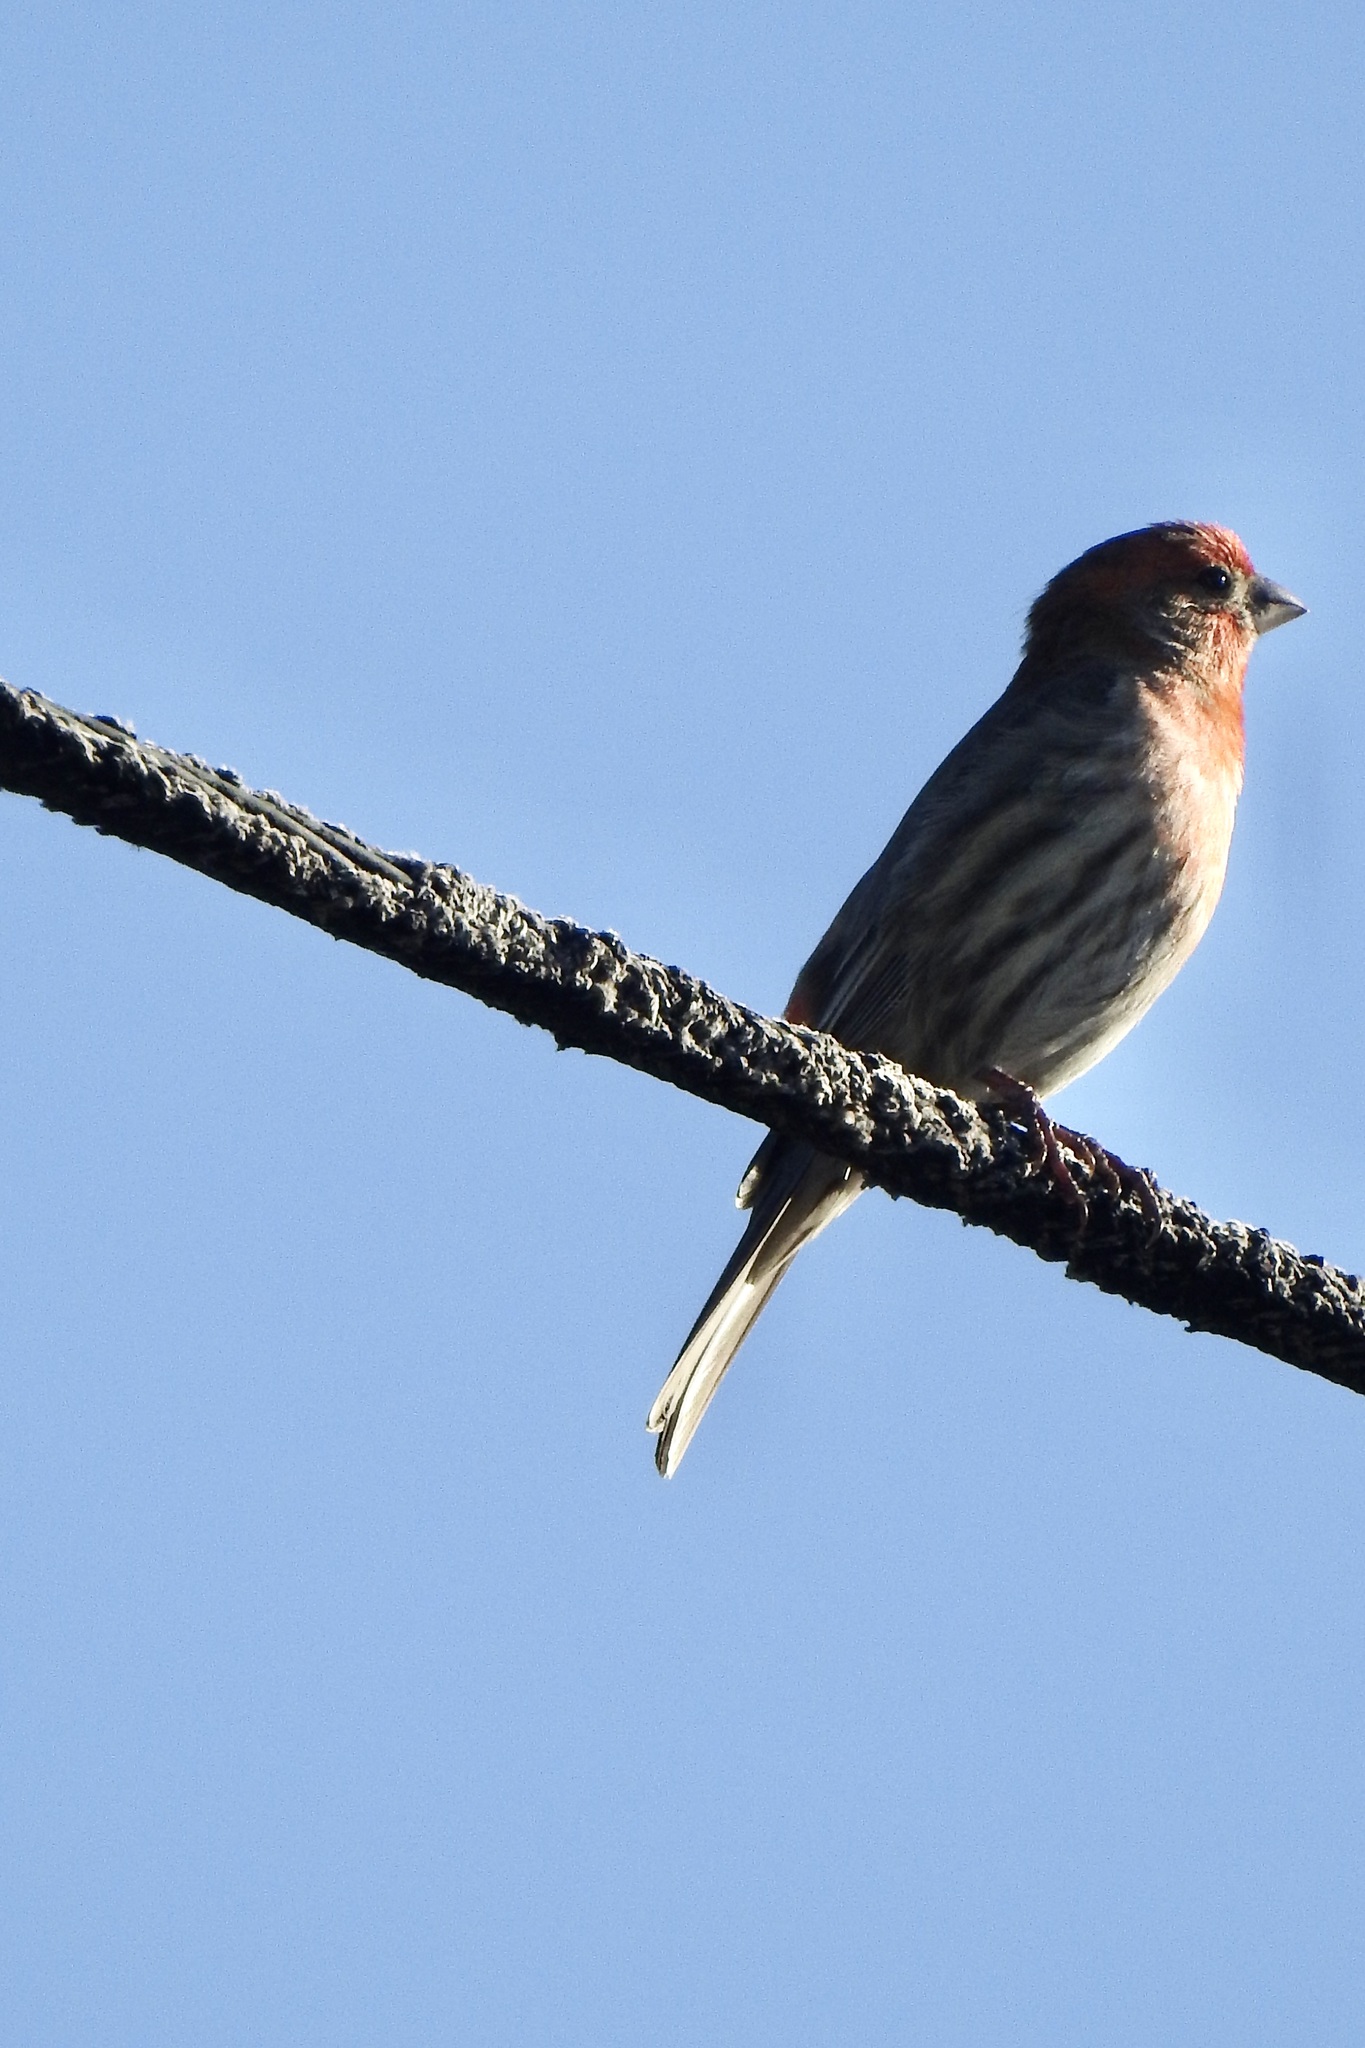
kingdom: Animalia
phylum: Chordata
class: Aves
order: Passeriformes
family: Fringillidae
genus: Haemorhous
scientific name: Haemorhous mexicanus
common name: House finch
